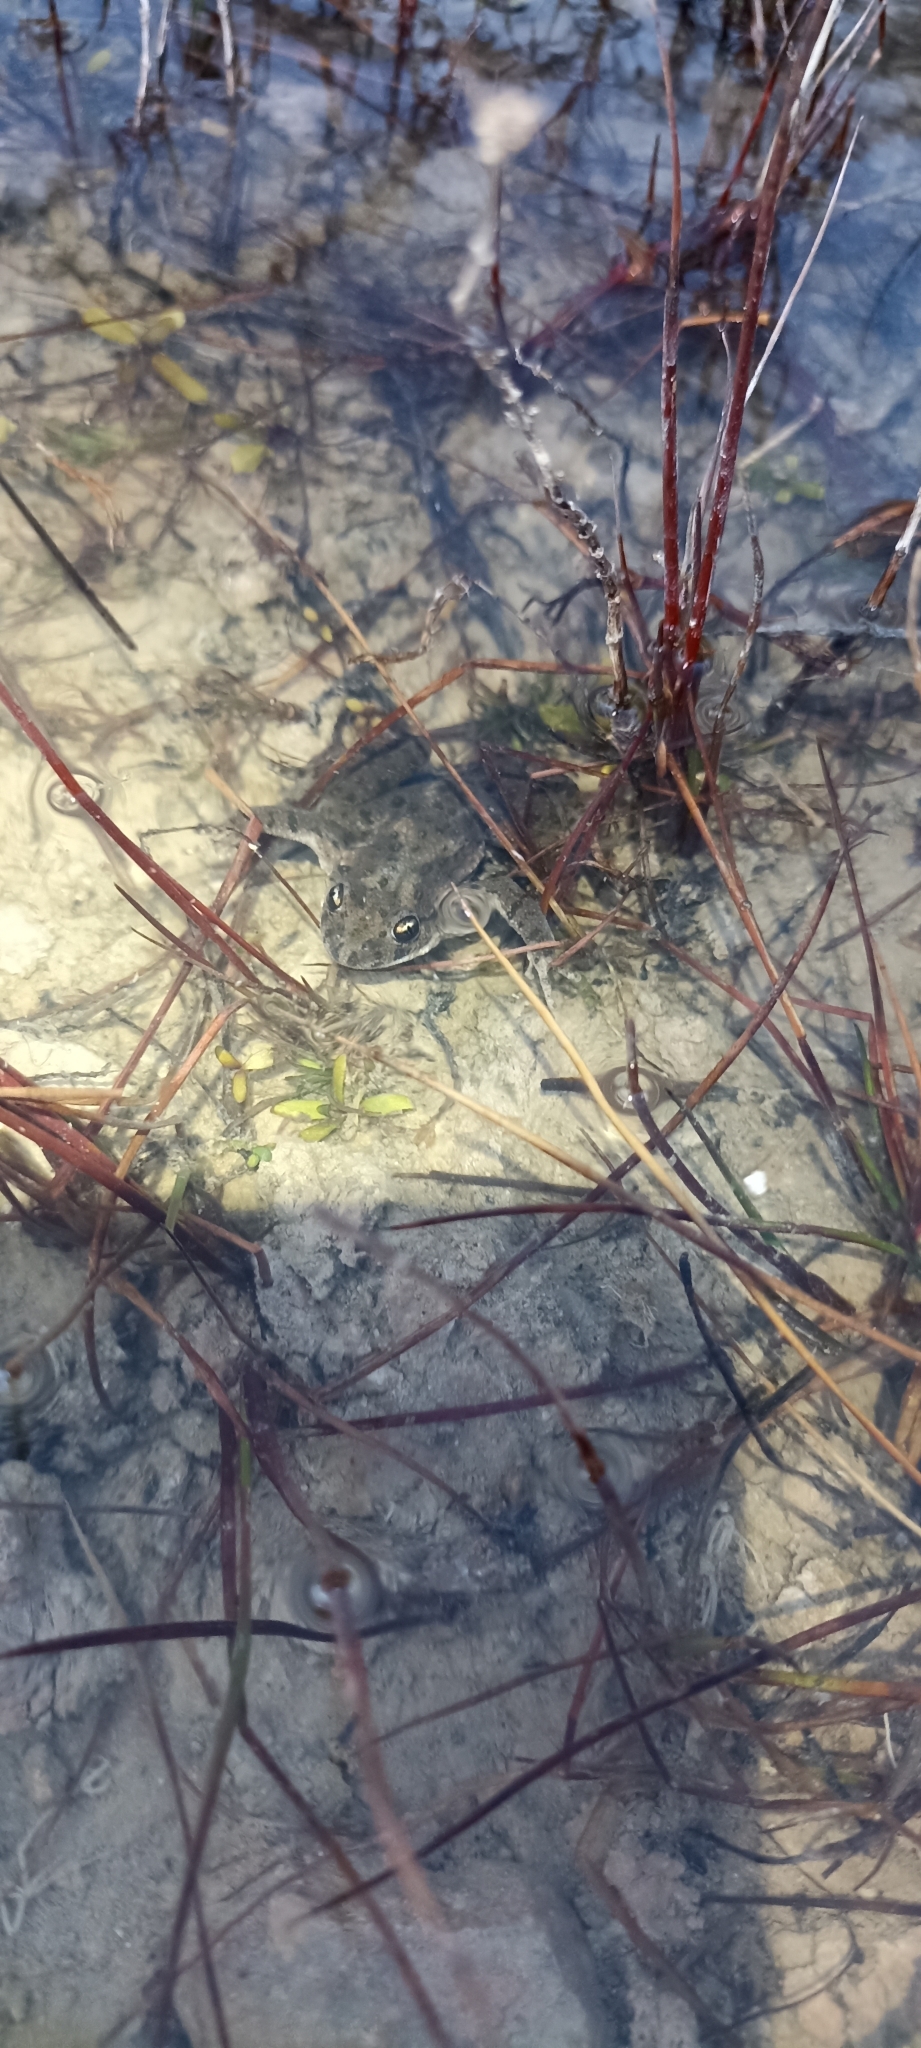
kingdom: Animalia
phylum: Chordata
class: Amphibia
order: Anura
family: Pelodytidae
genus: Pelodytes
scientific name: Pelodytes punctatus
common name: Parsley frog
